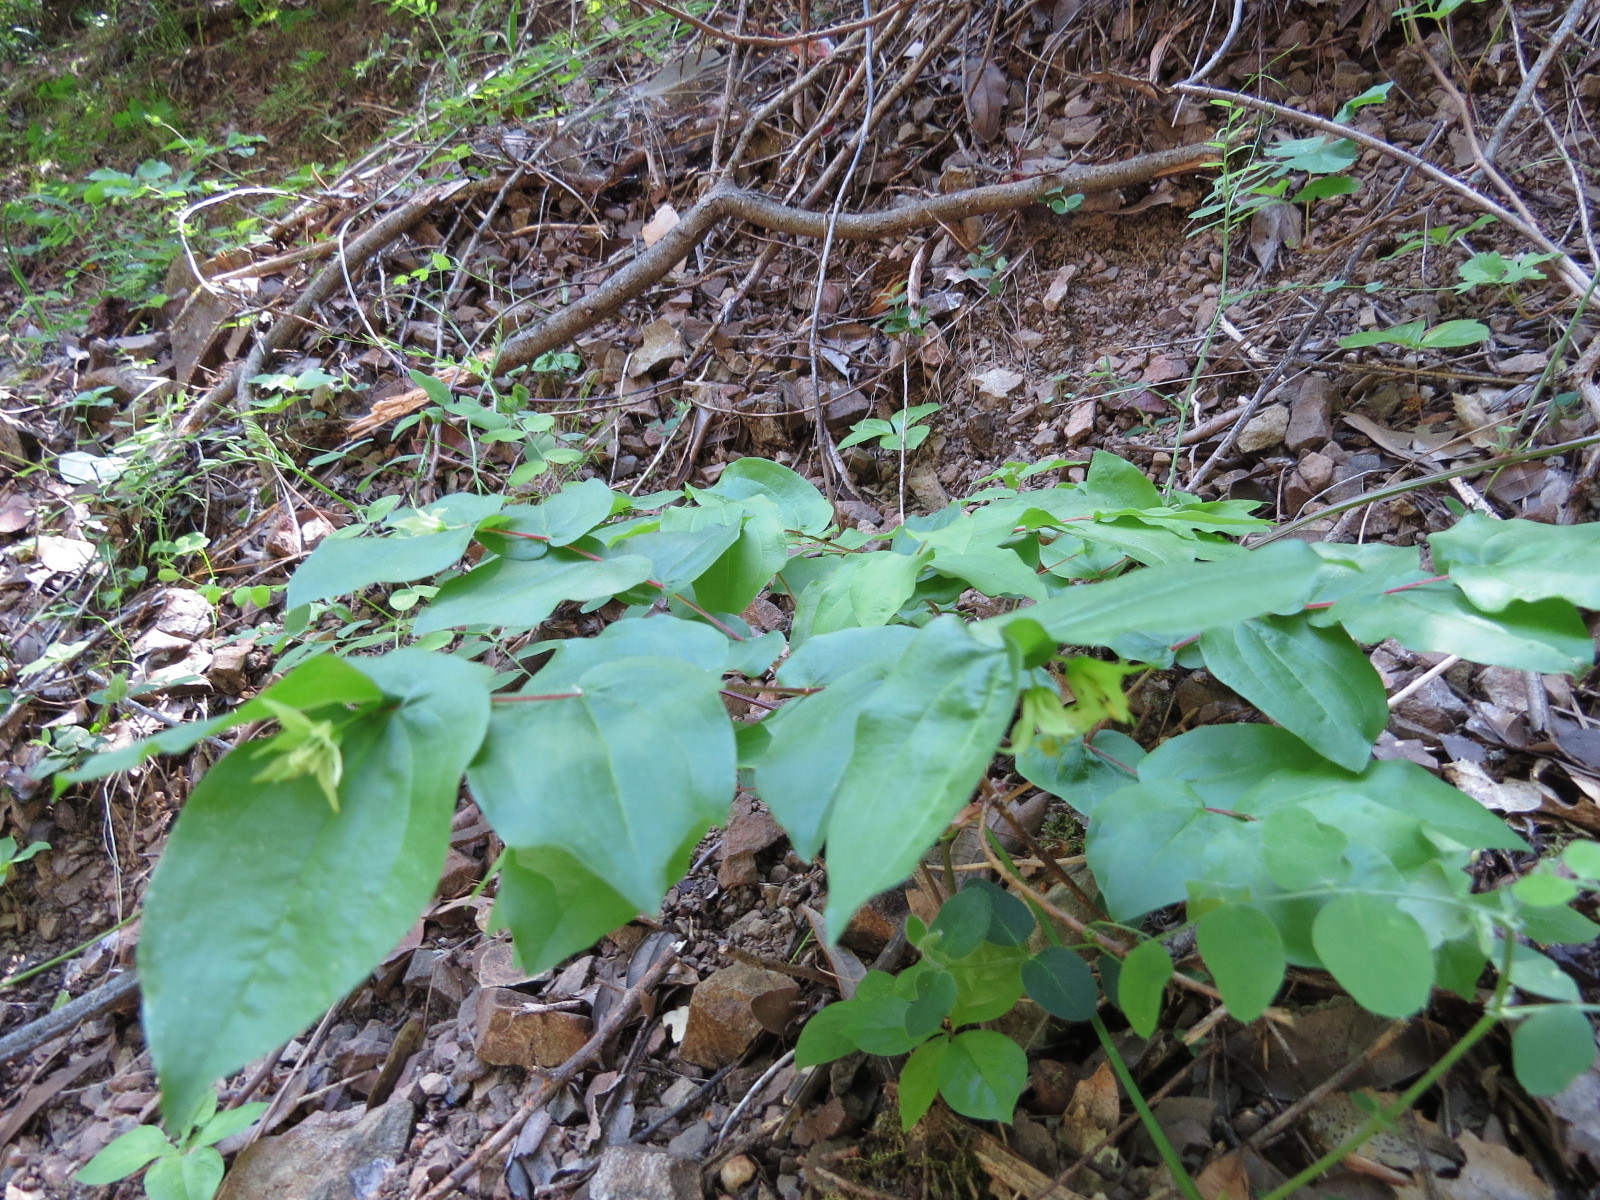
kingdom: Plantae
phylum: Tracheophyta
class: Liliopsida
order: Liliales
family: Liliaceae
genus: Prosartes
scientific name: Prosartes hookeri
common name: Fairy-bells
